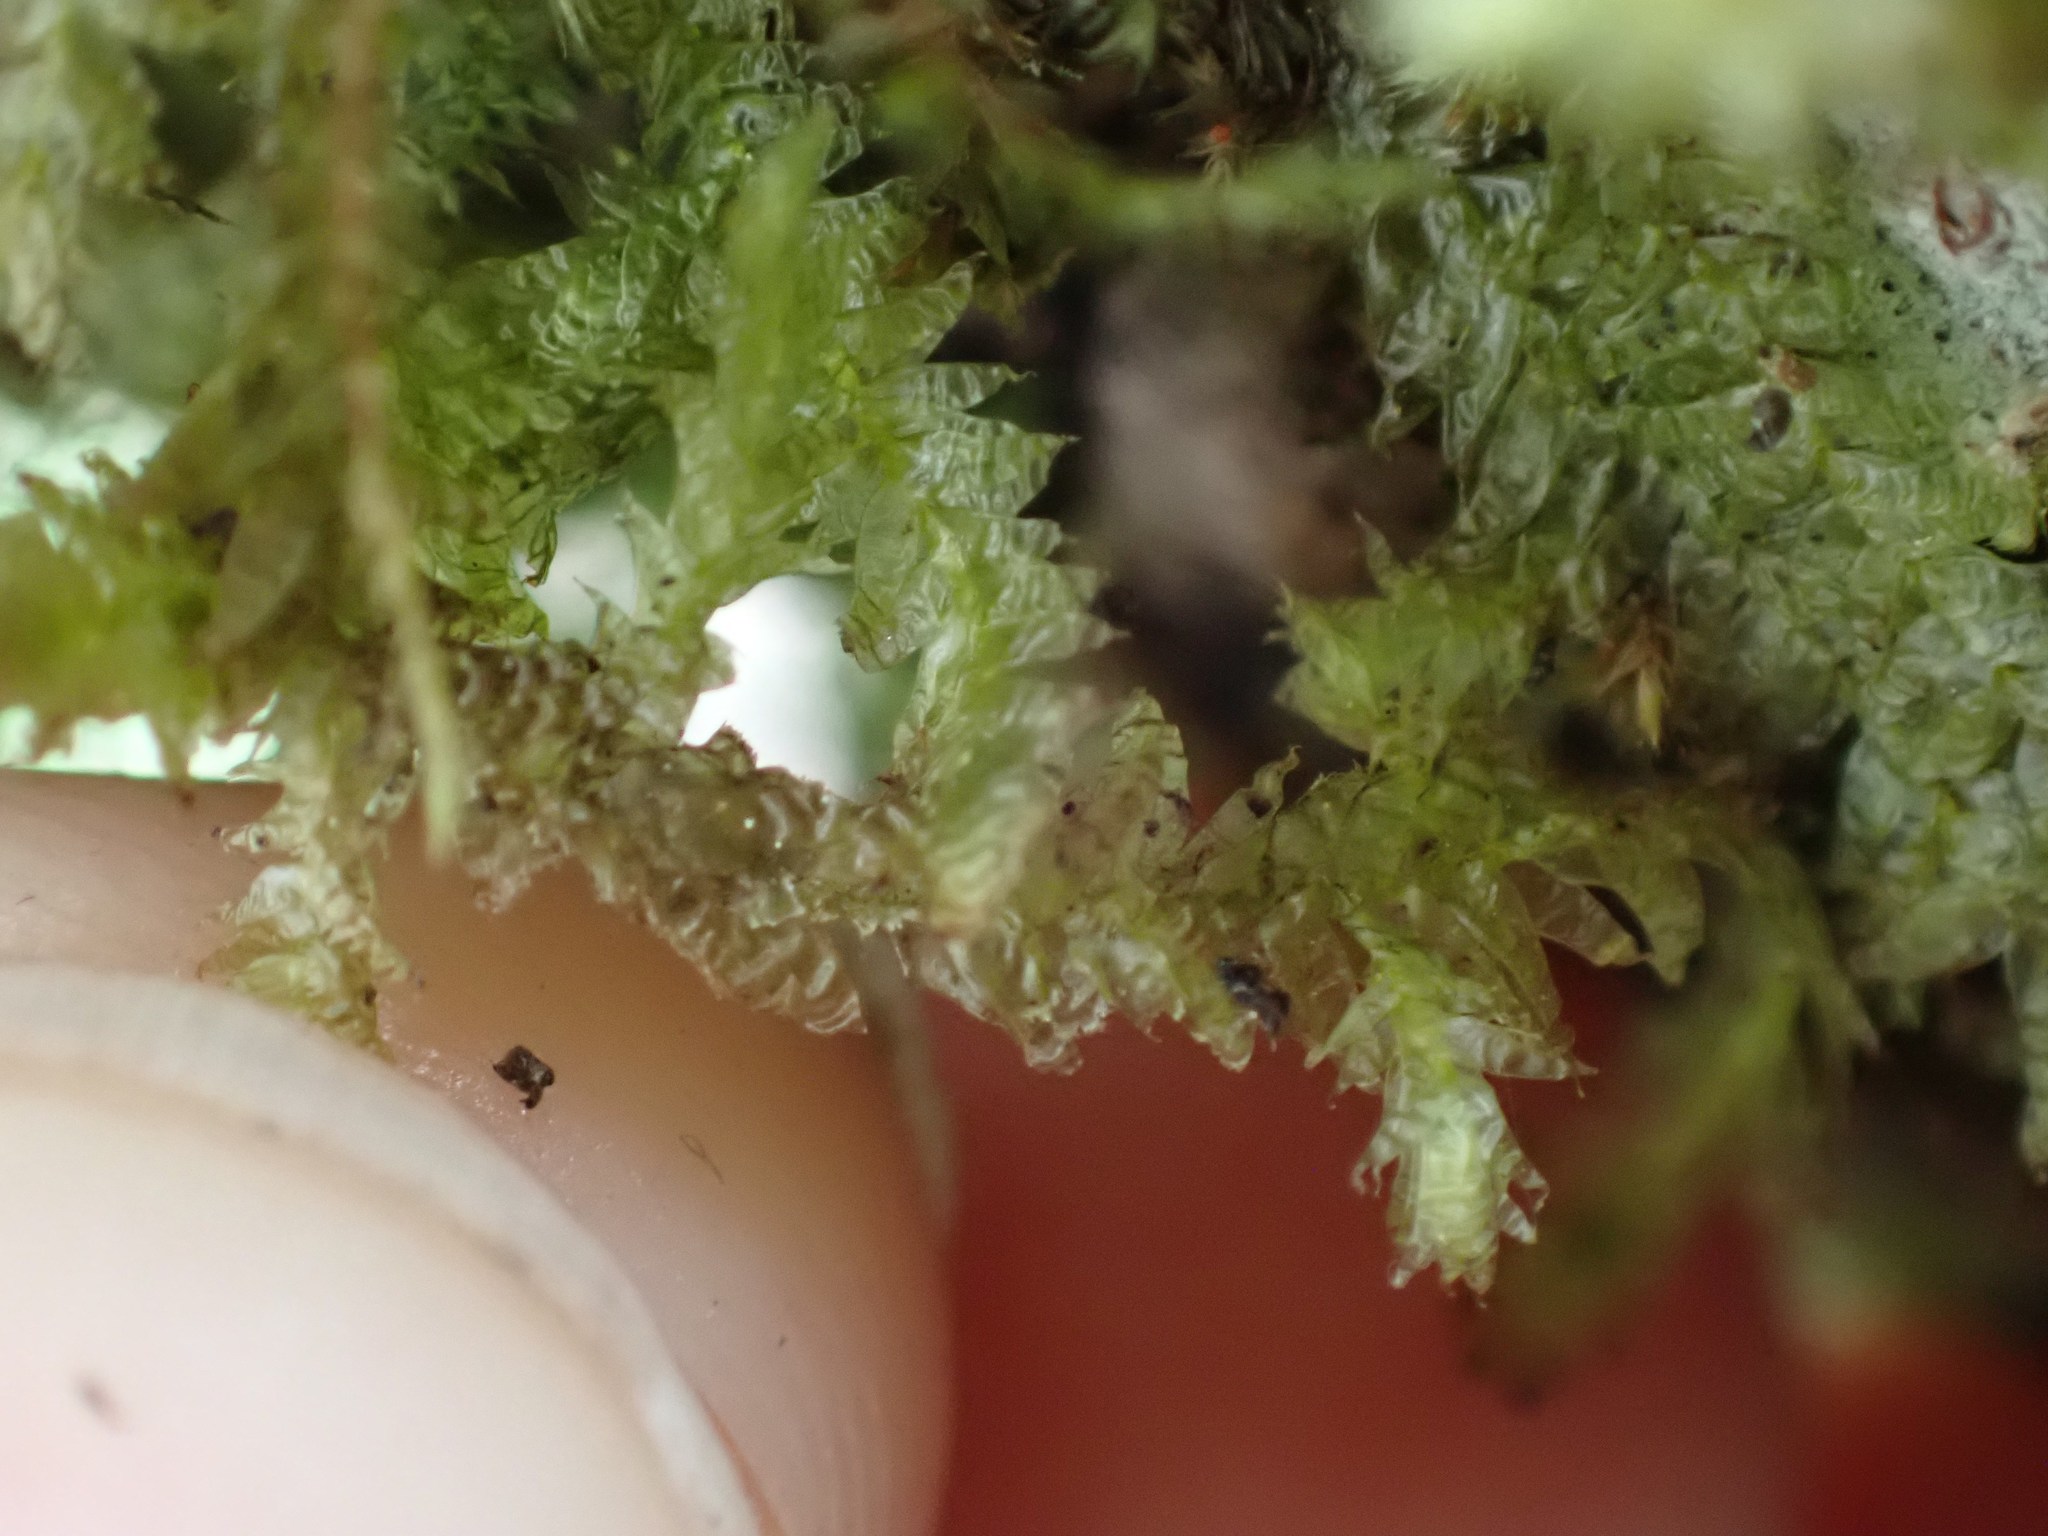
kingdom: Plantae
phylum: Bryophyta
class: Bryopsida
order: Hypnales
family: Neckeraceae
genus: Neckera
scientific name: Neckera douglasii
